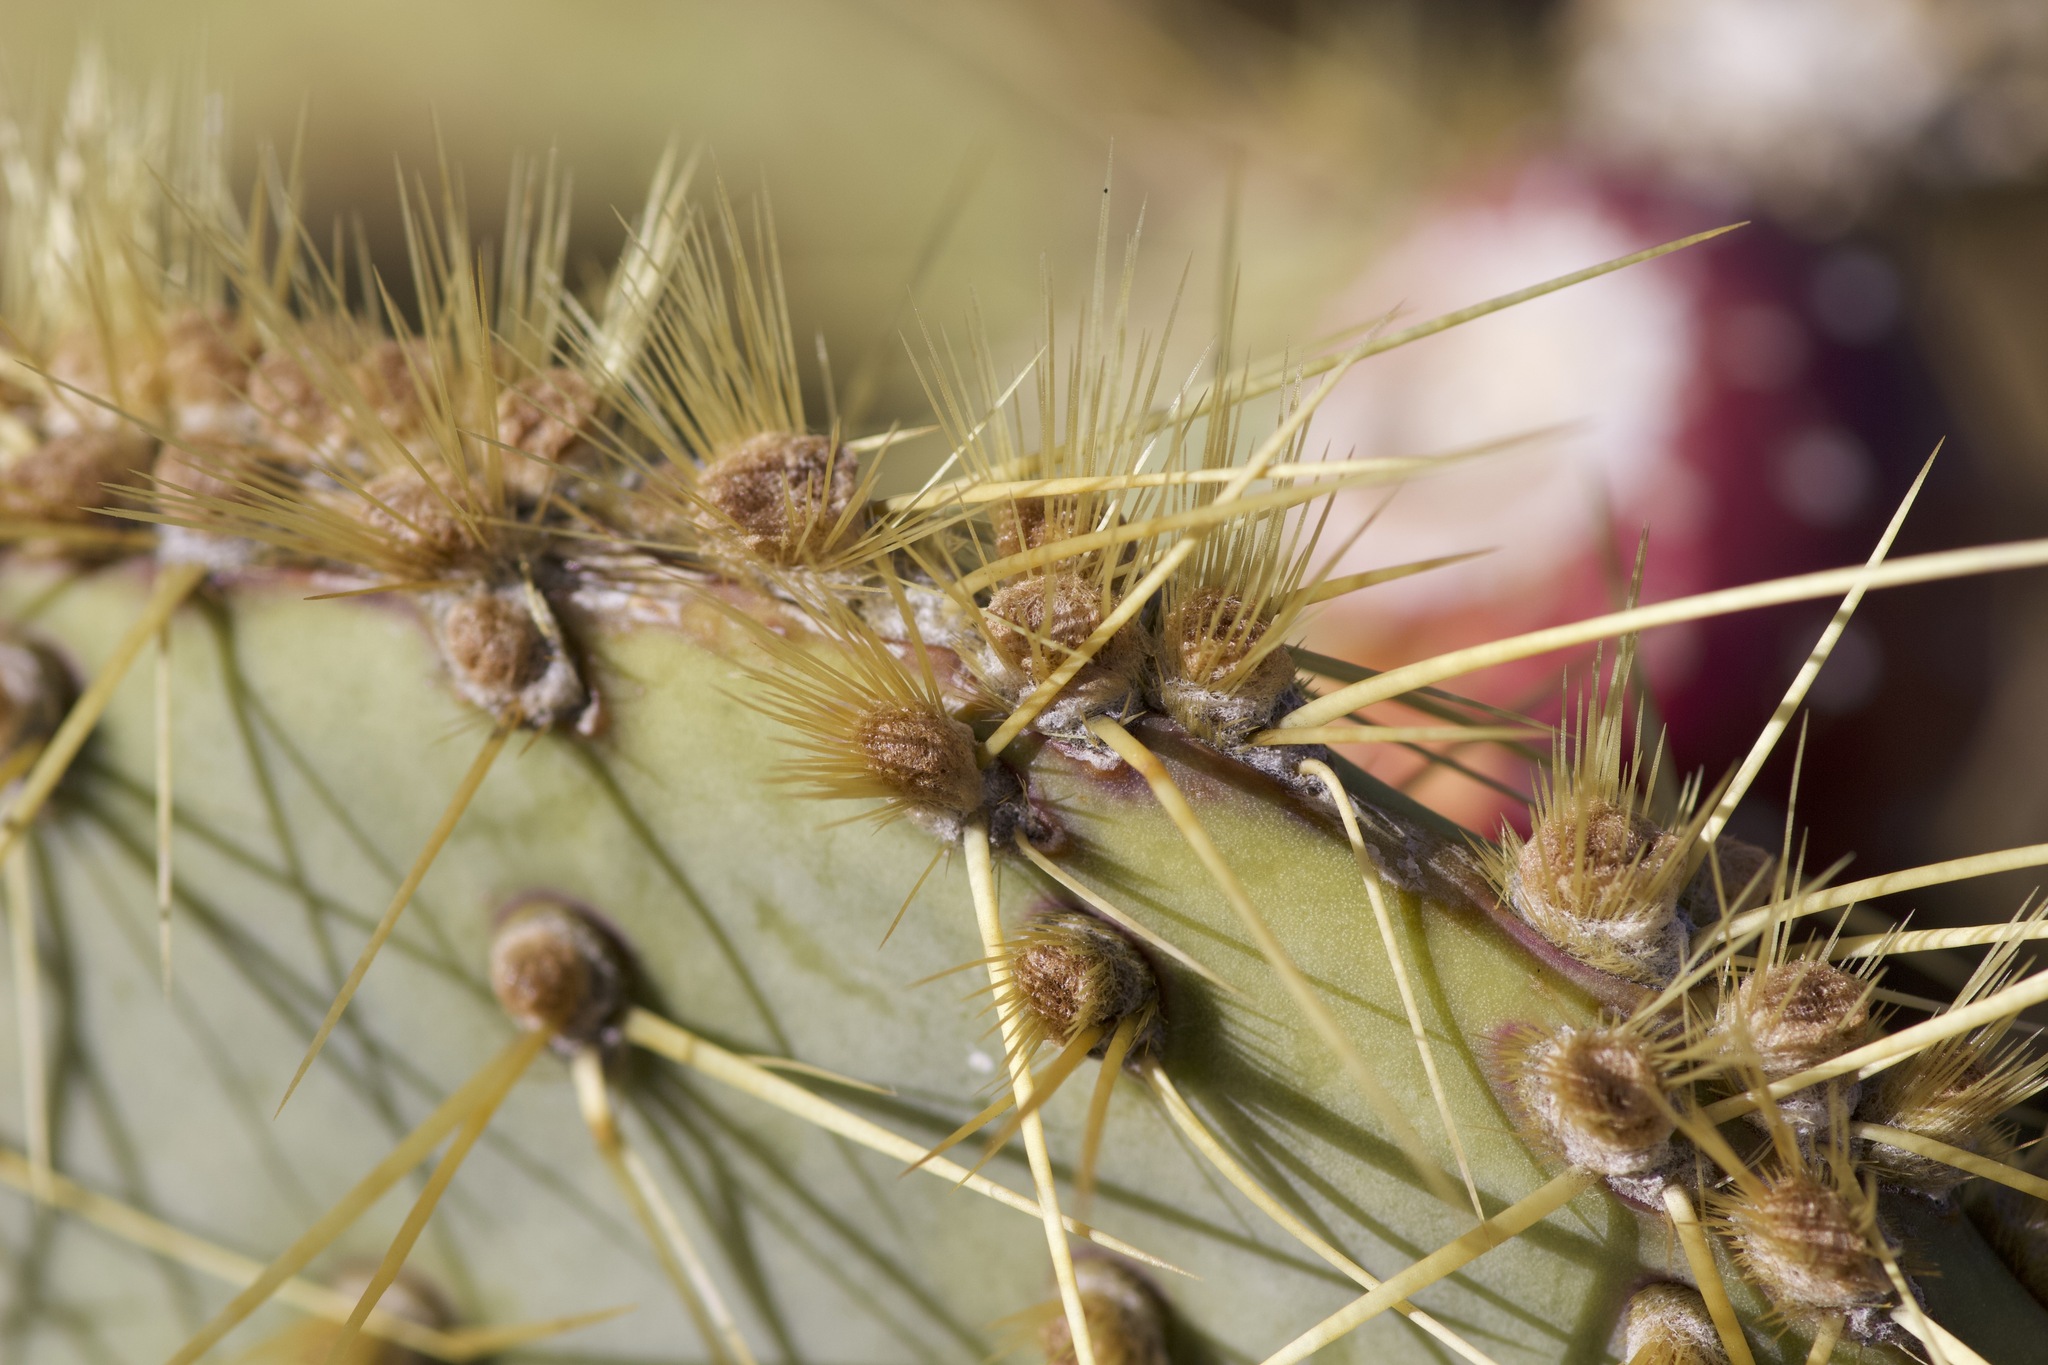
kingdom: Plantae
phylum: Tracheophyta
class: Magnoliopsida
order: Caryophyllales
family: Cactaceae
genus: Opuntia
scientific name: Opuntia chlorotica
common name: Dollar-joint prickly-pear
